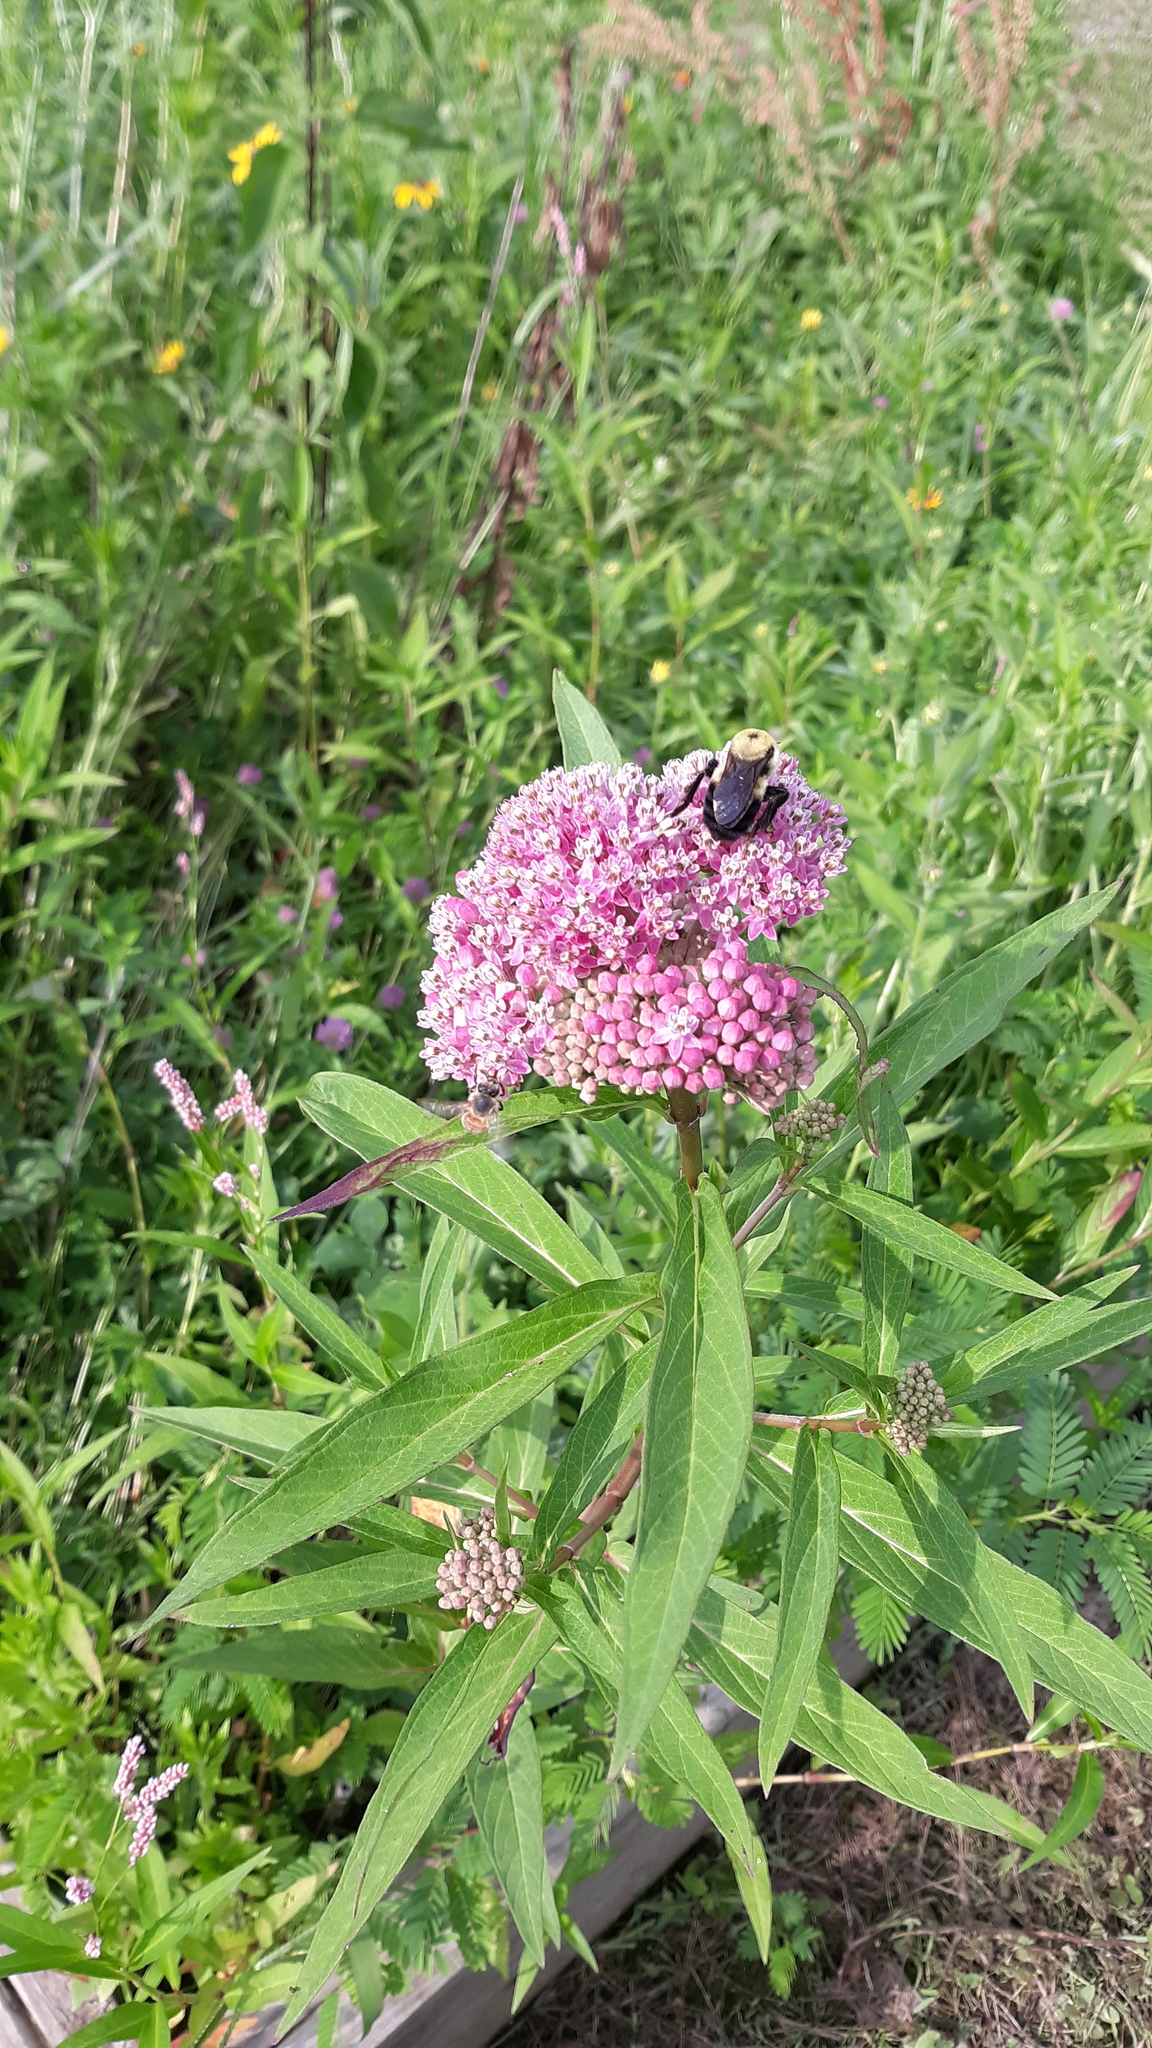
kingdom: Plantae
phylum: Tracheophyta
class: Magnoliopsida
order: Gentianales
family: Apocynaceae
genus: Asclepias
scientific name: Asclepias incarnata
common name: Swamp milkweed
